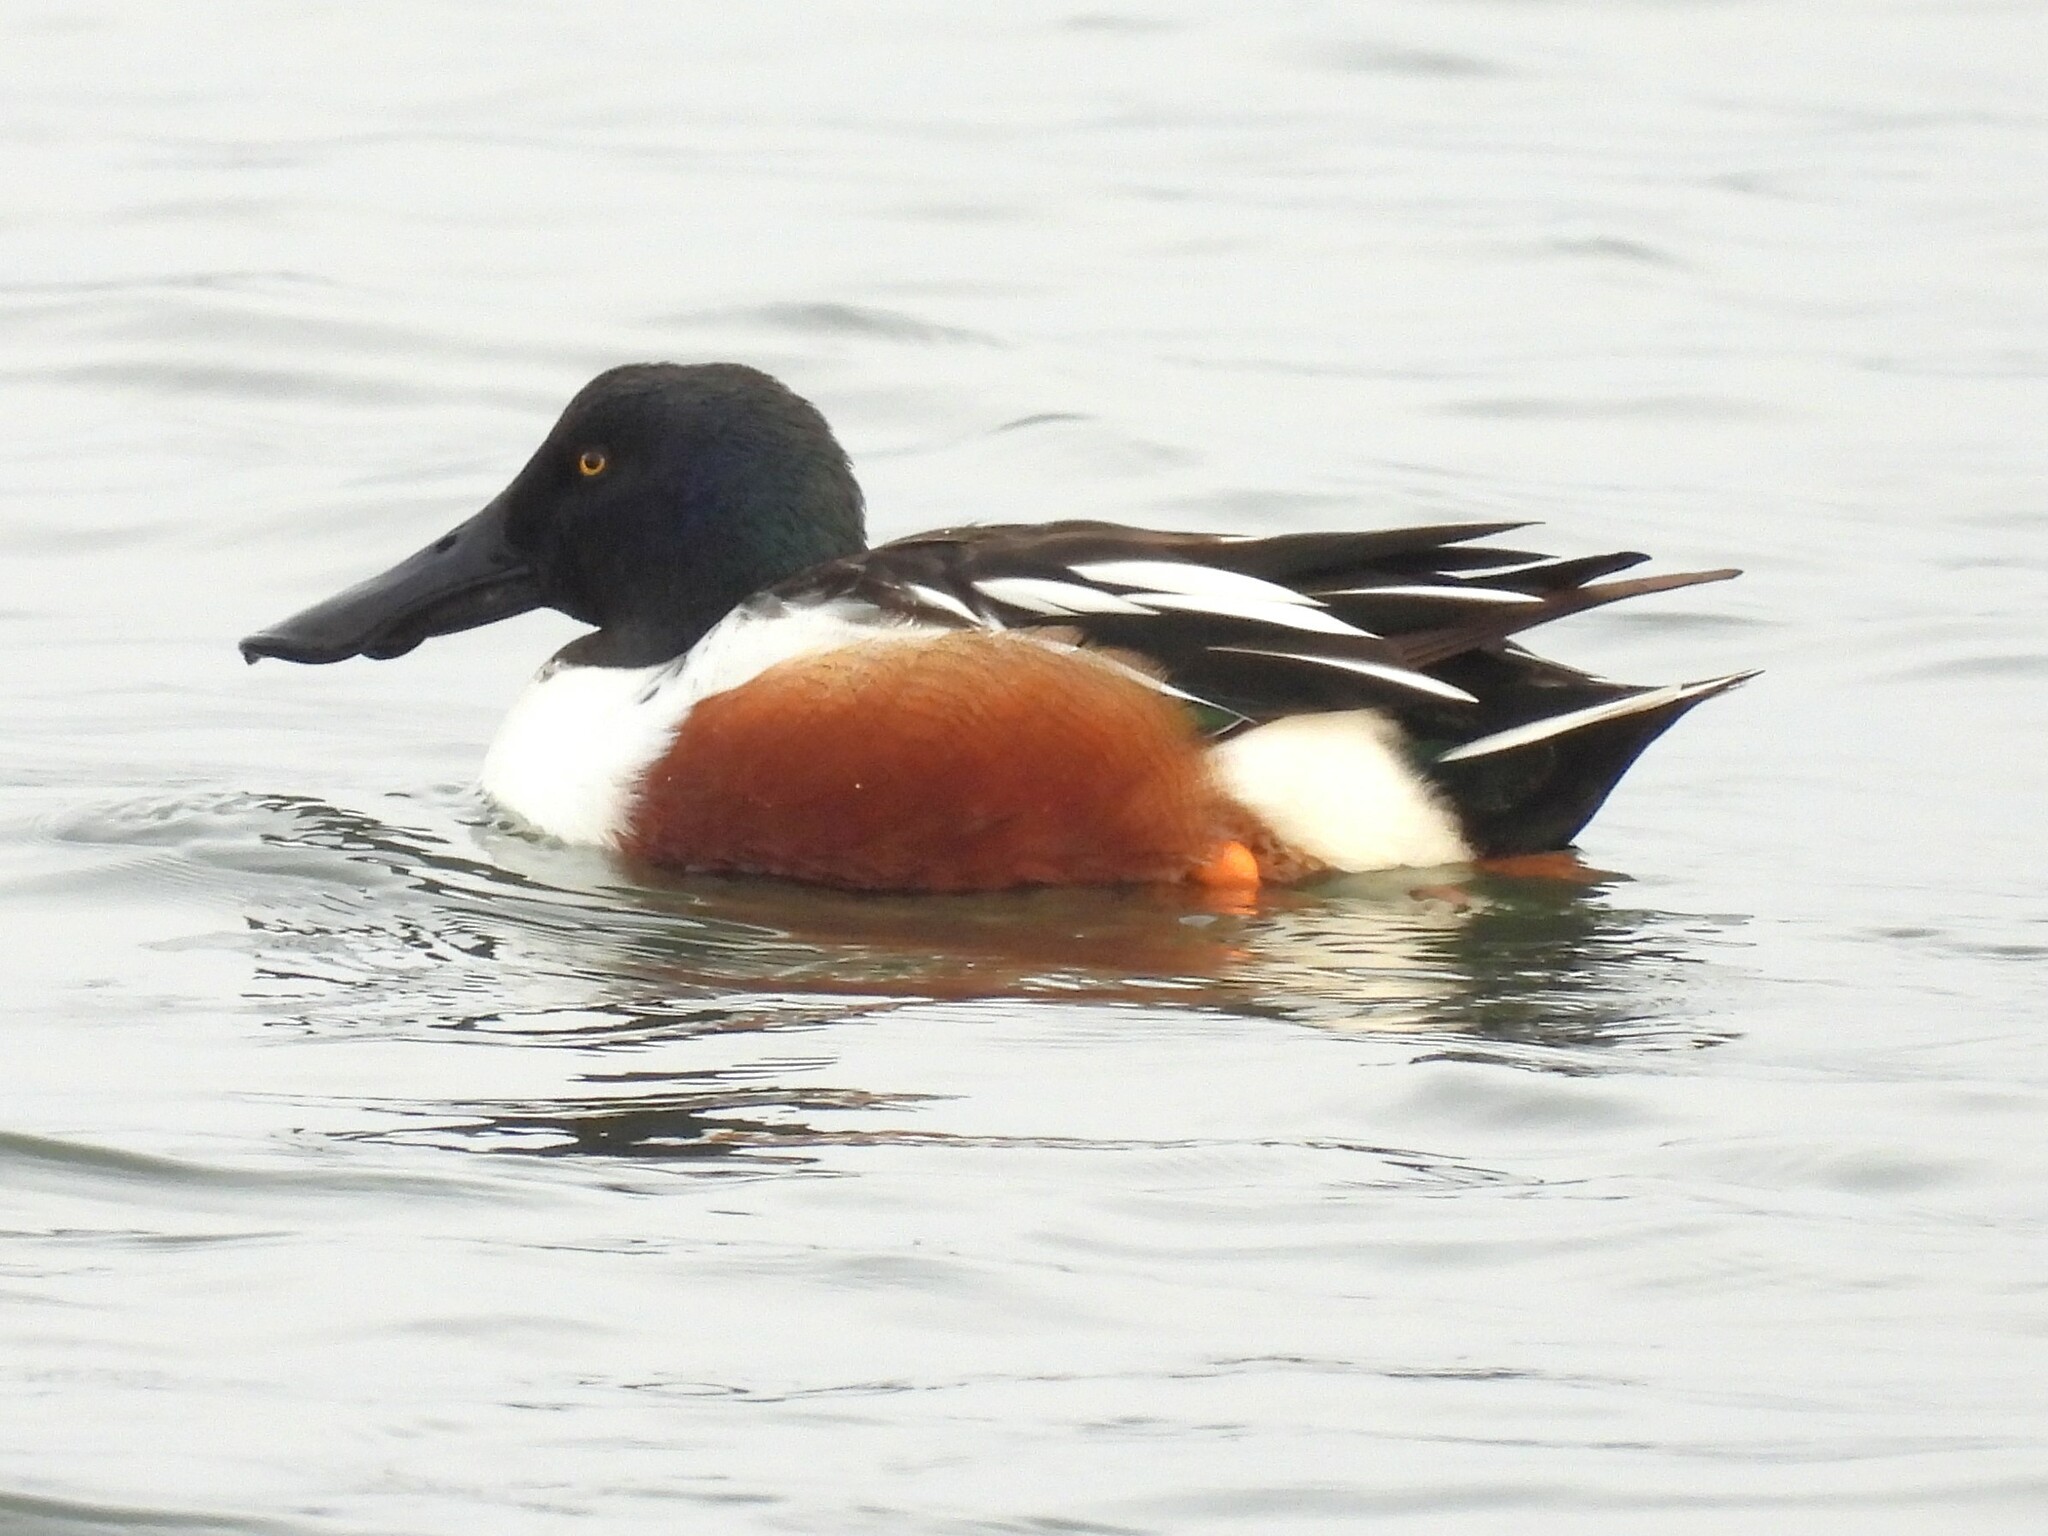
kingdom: Animalia
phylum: Chordata
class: Aves
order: Anseriformes
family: Anatidae
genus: Spatula
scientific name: Spatula clypeata
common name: Northern shoveler
